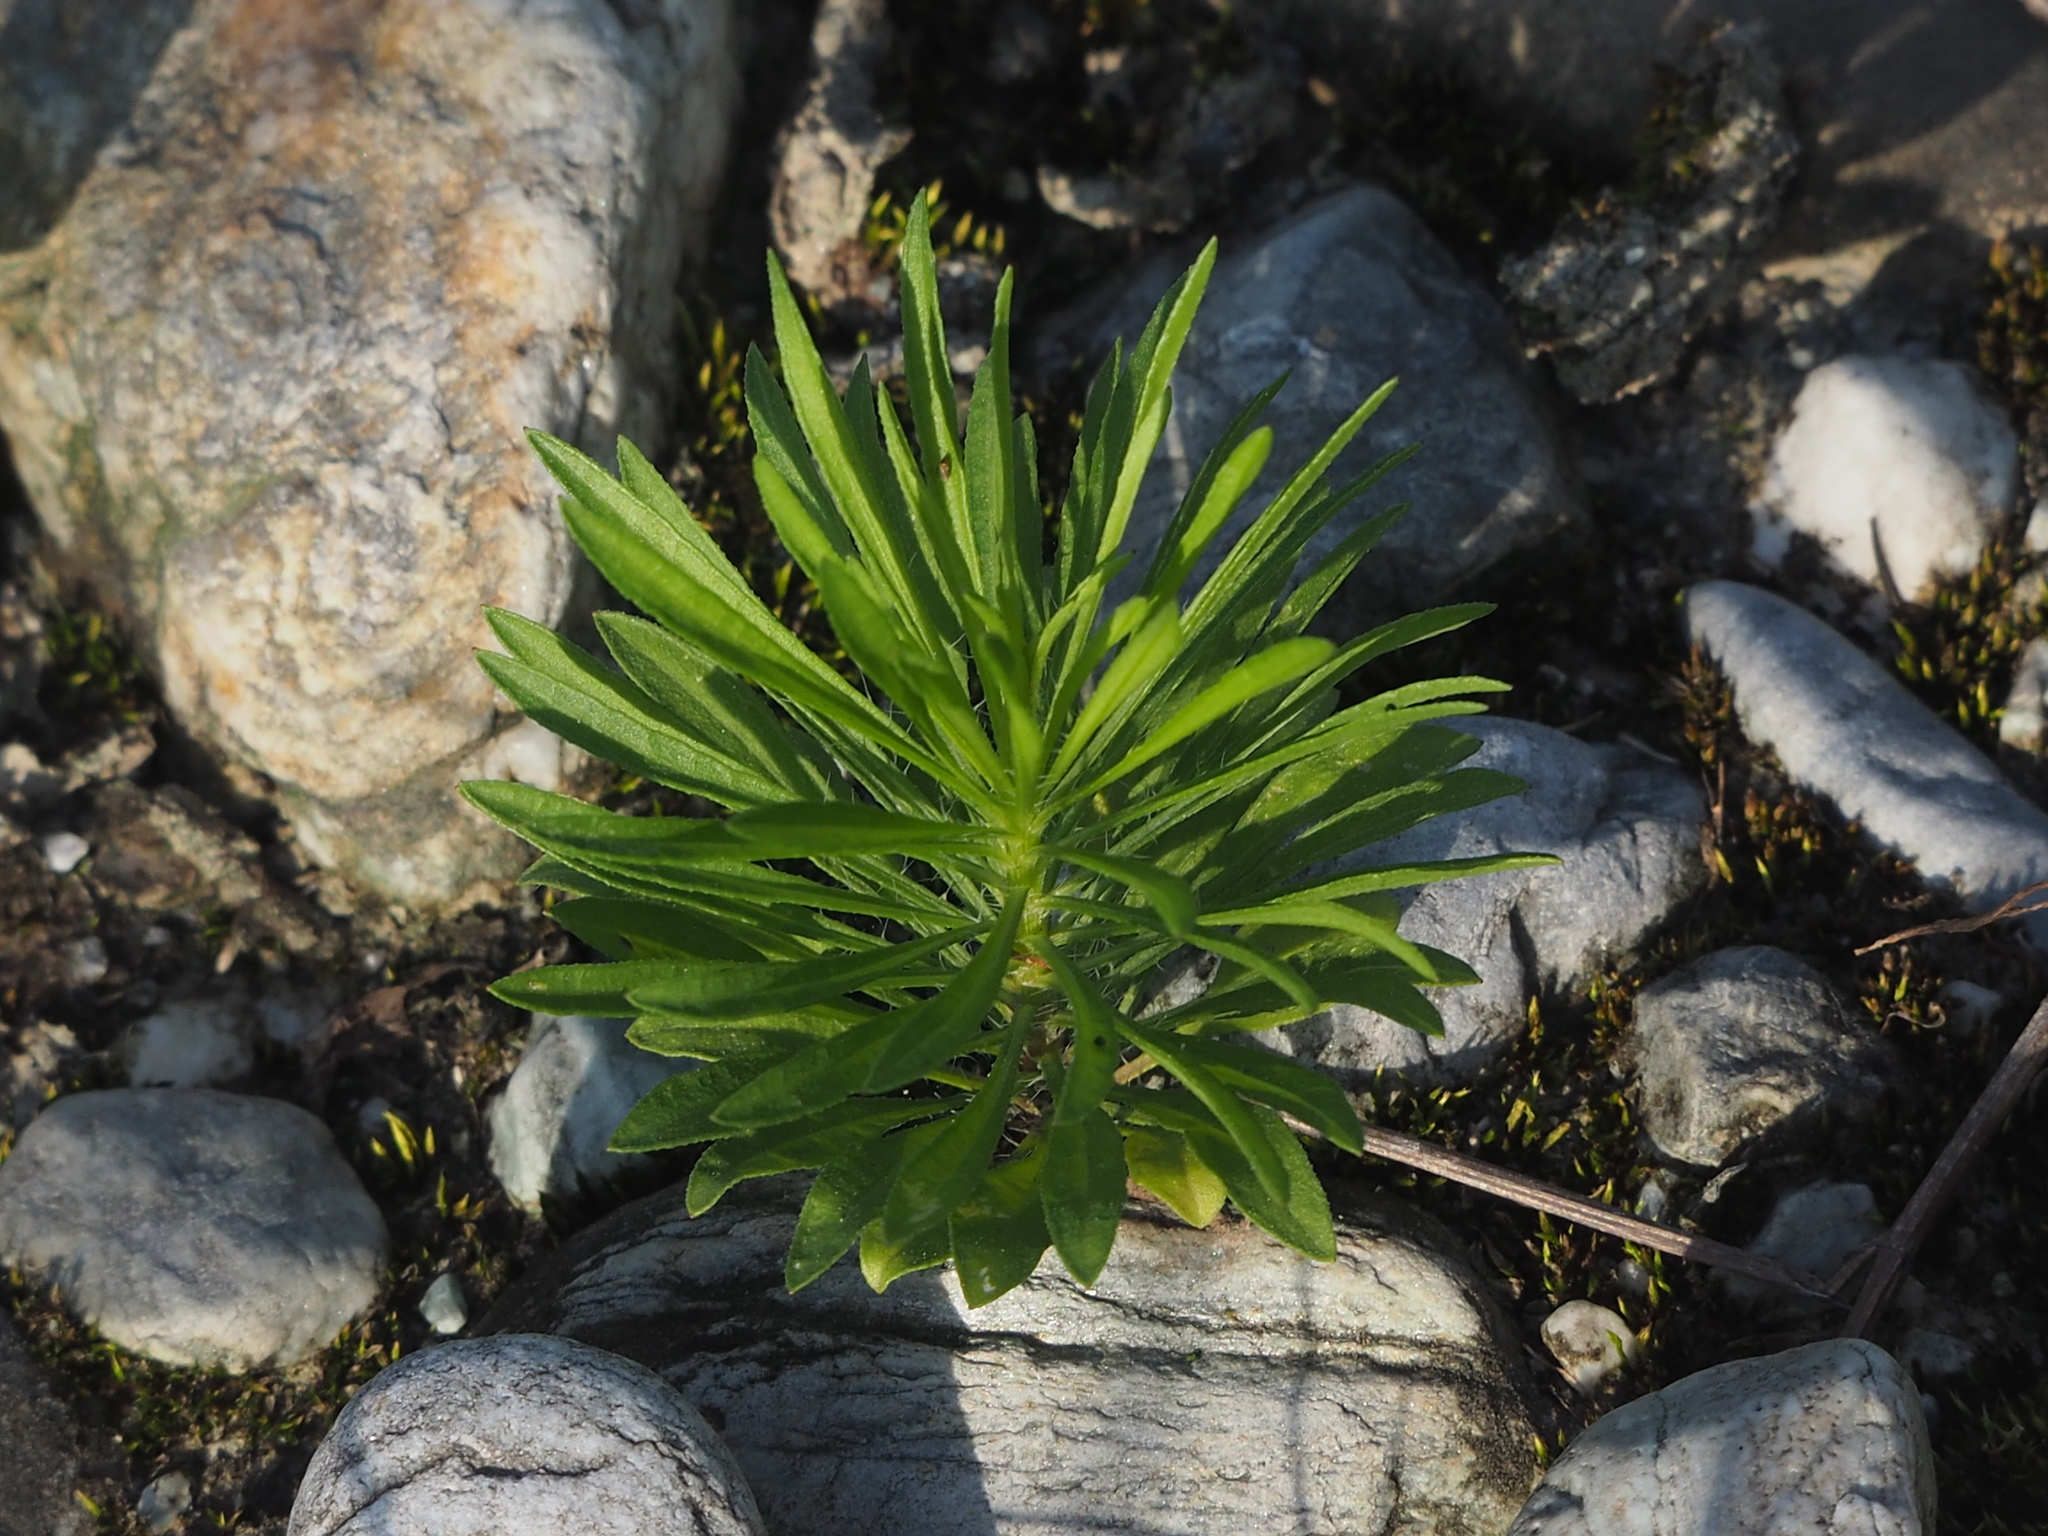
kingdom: Plantae
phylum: Tracheophyta
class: Magnoliopsida
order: Asterales
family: Asteraceae
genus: Erigeron
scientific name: Erigeron sumatrensis
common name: Daisy
